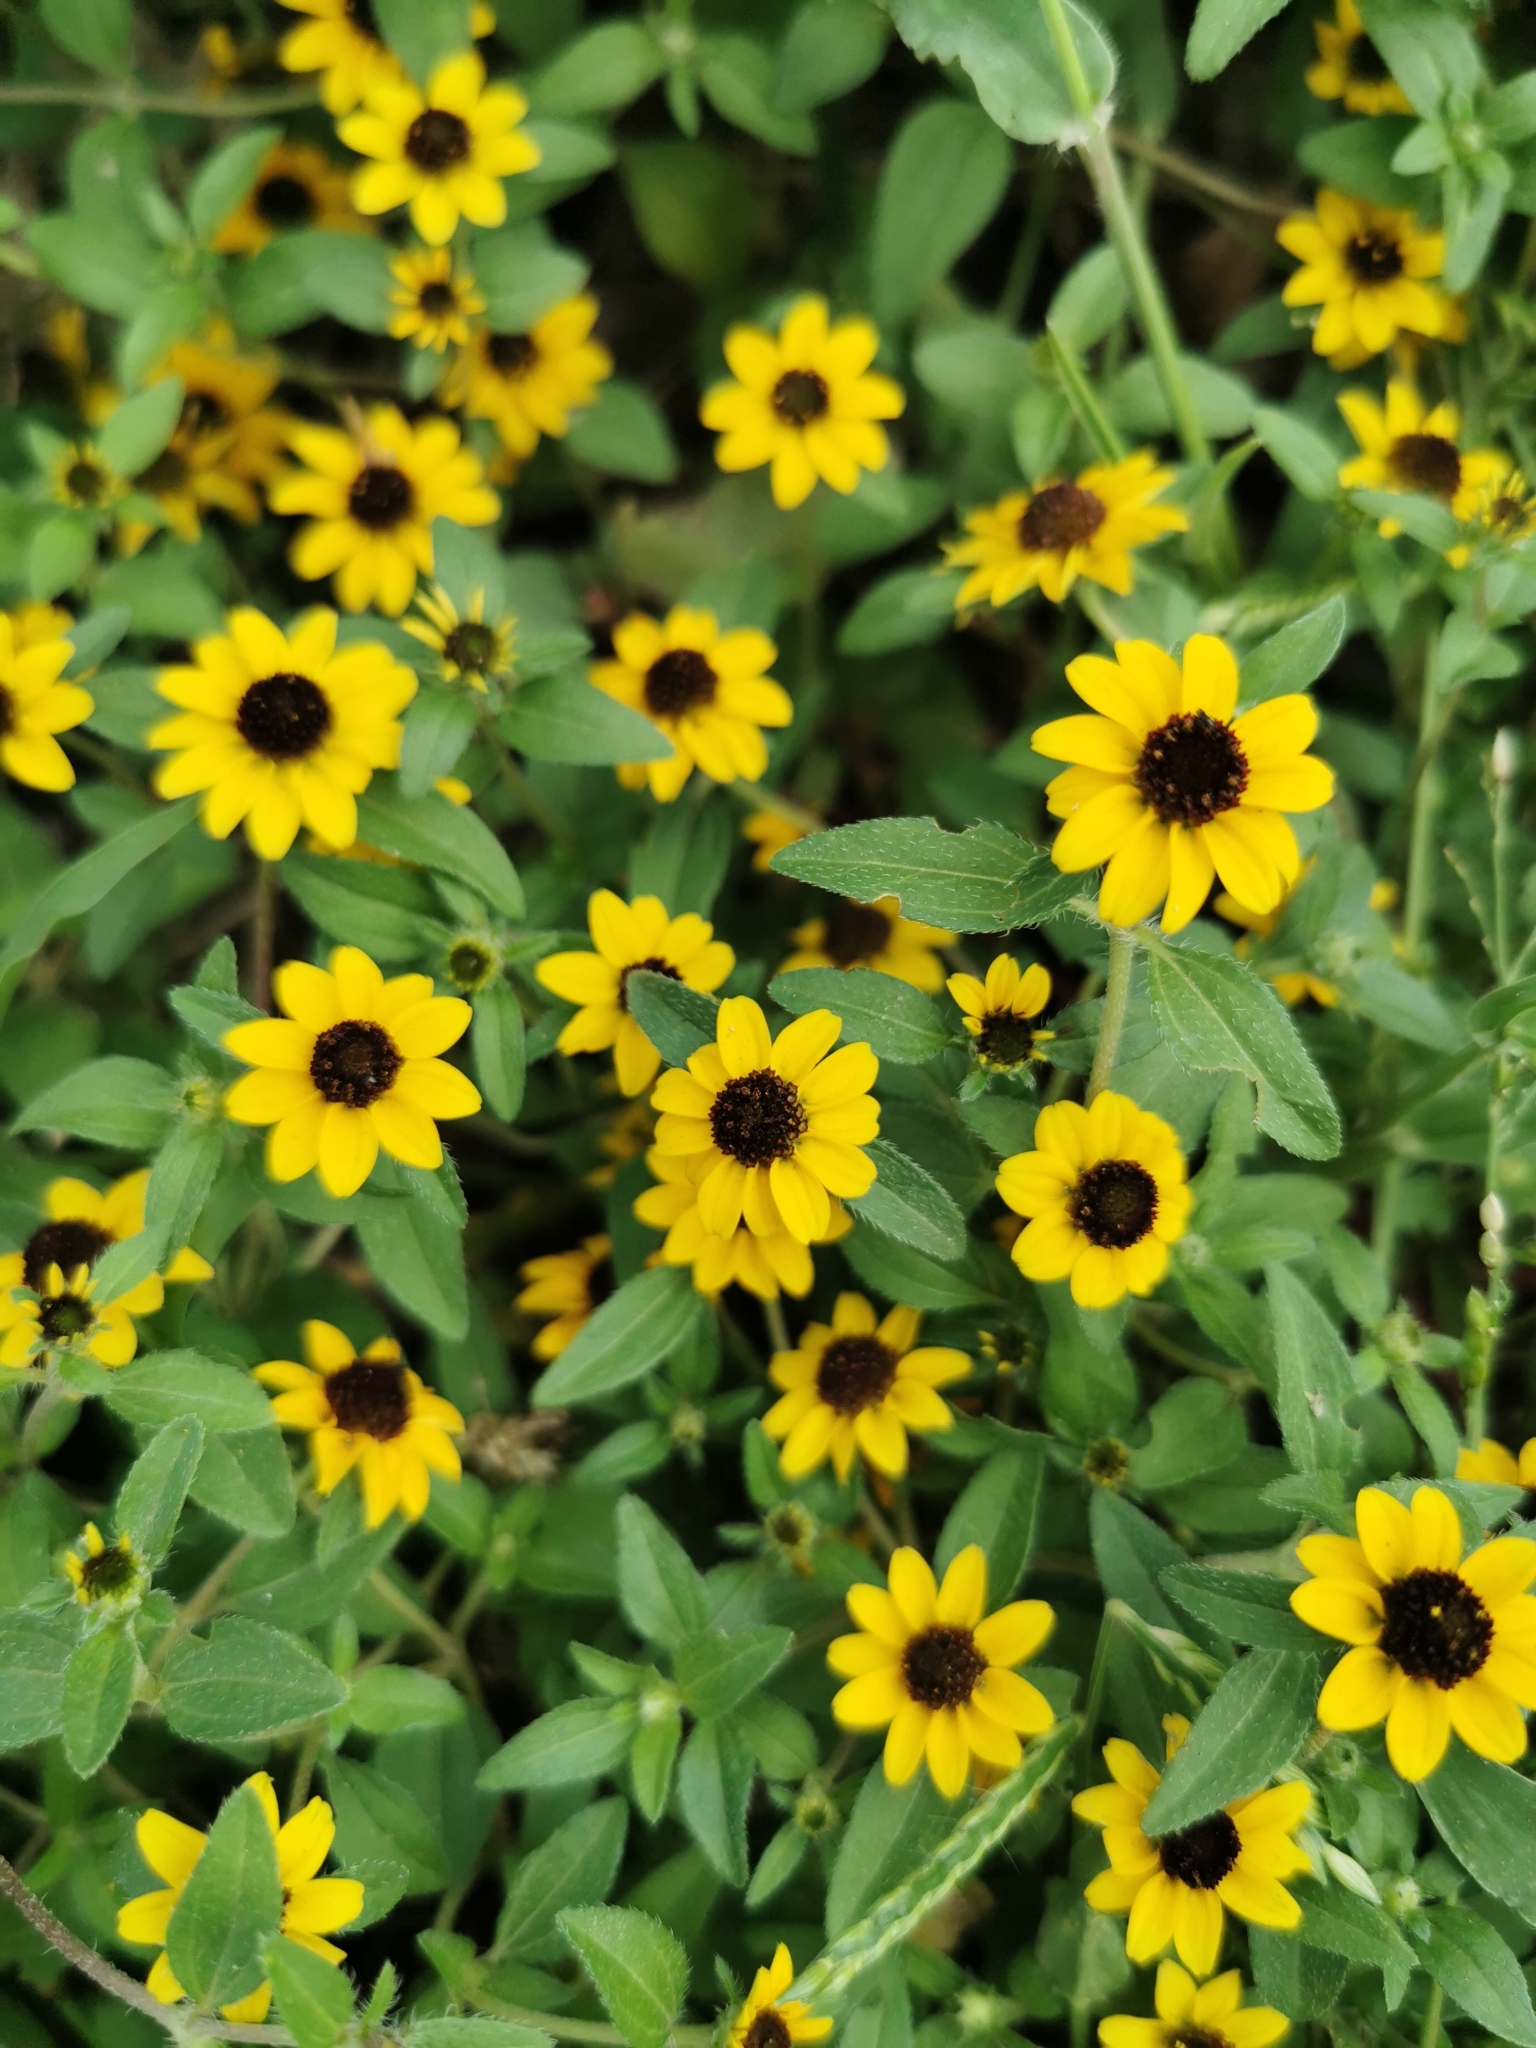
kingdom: Plantae
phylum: Tracheophyta
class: Magnoliopsida
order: Asterales
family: Asteraceae
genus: Sanvitalia
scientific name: Sanvitalia procumbens
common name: Mexican creeping zinnia
